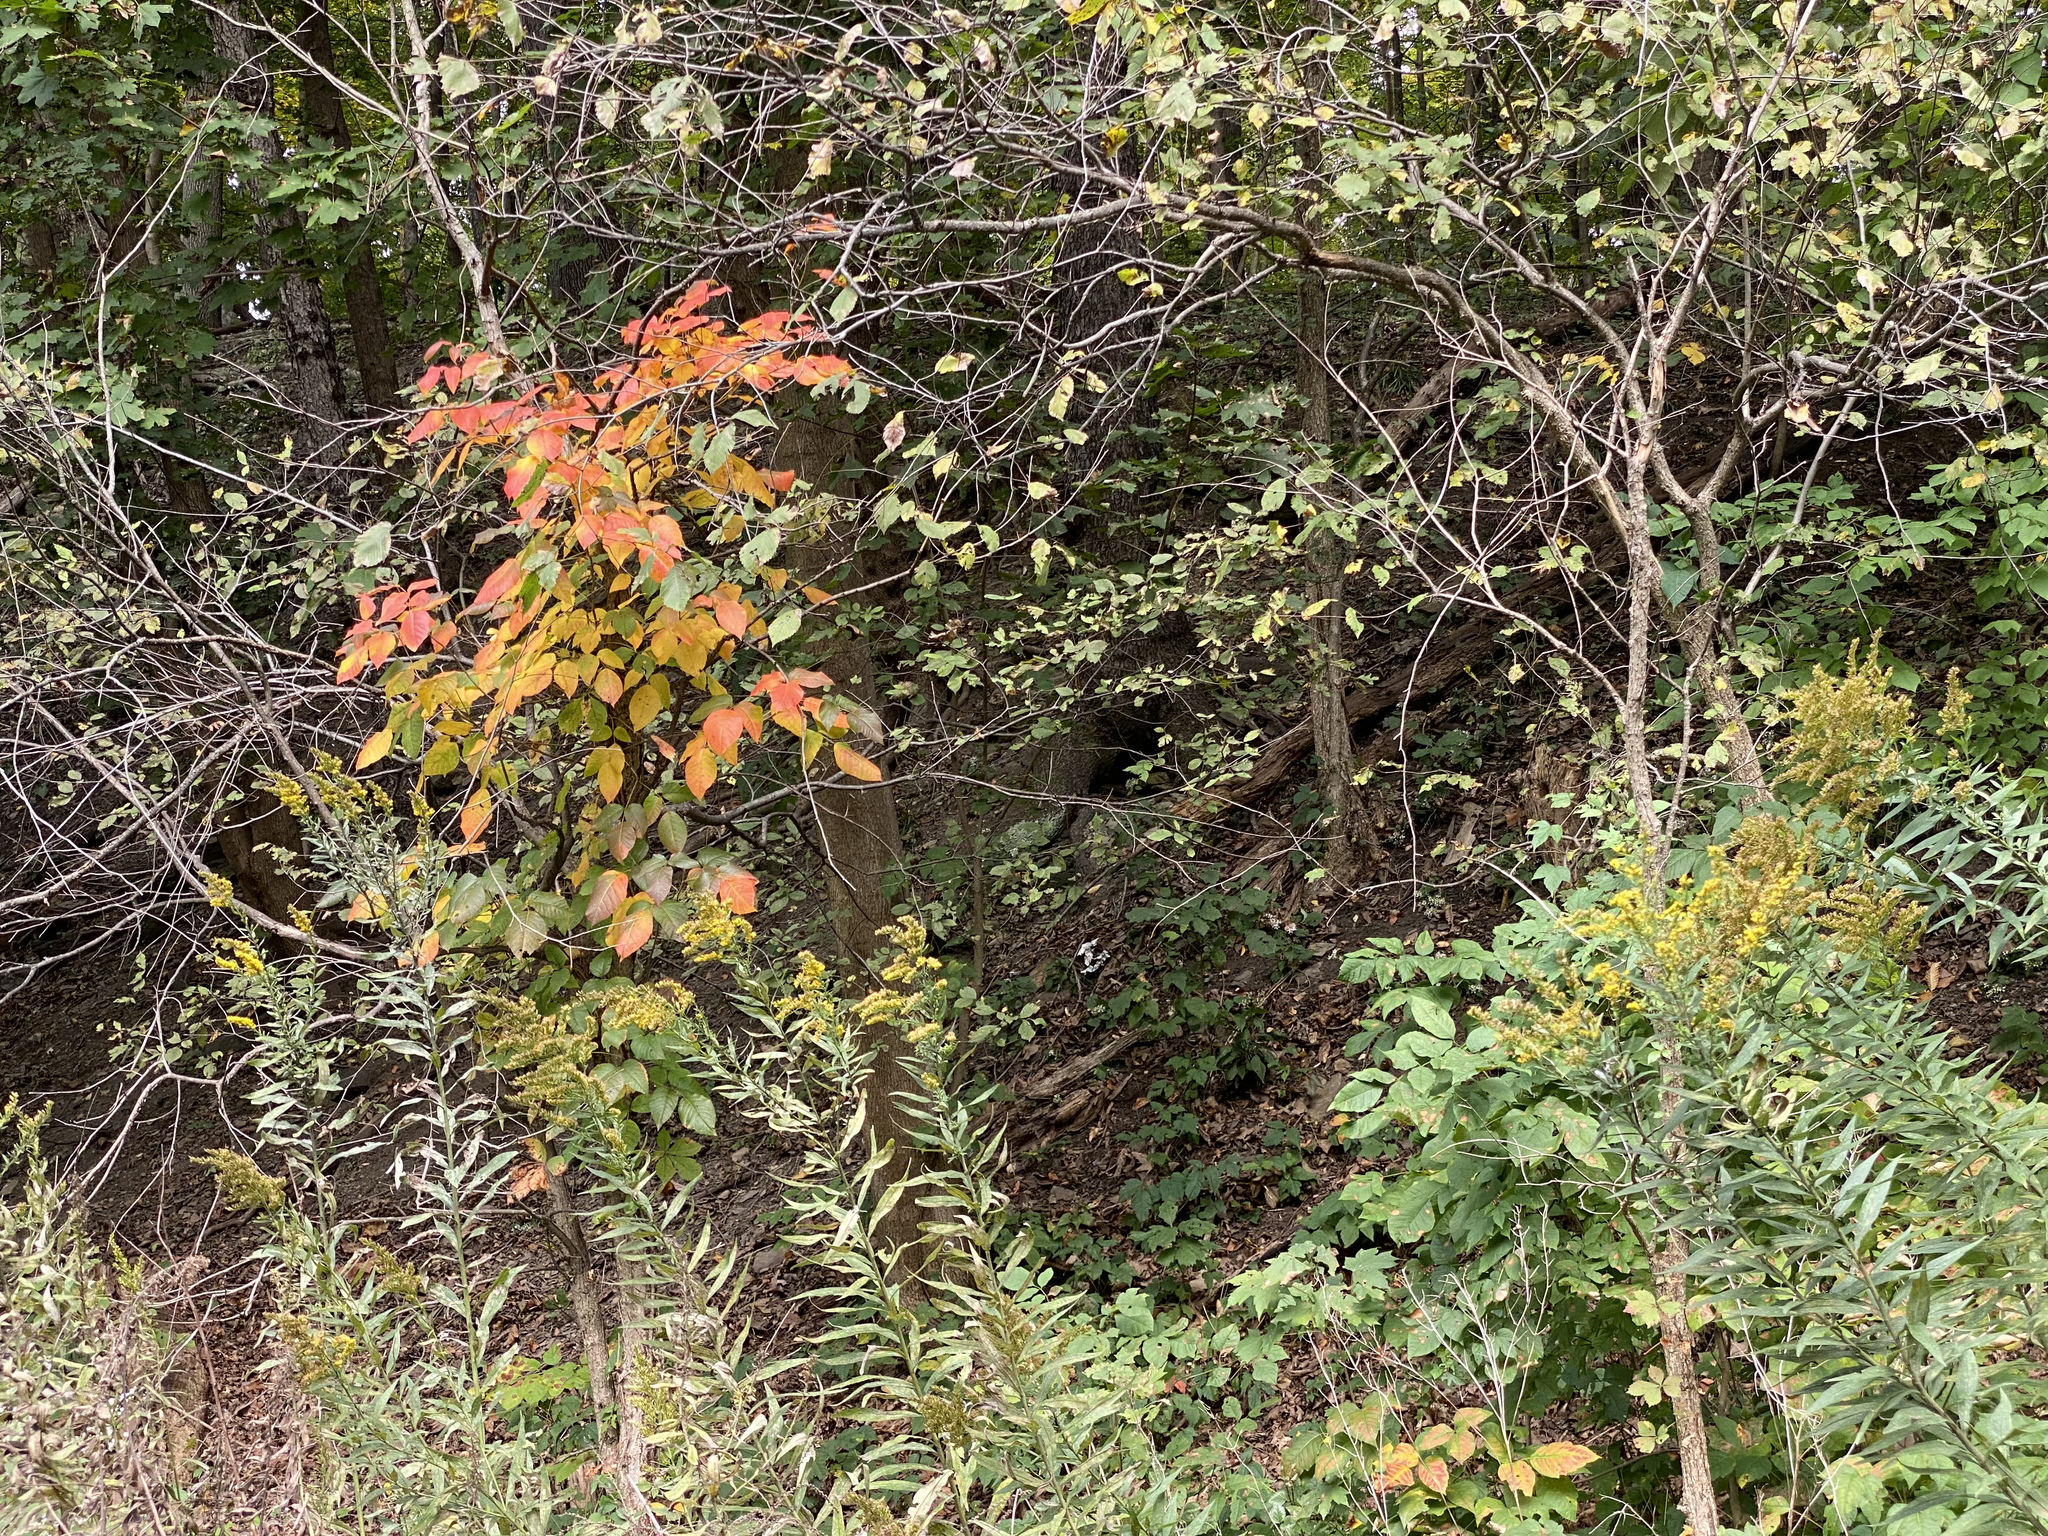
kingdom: Plantae
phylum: Tracheophyta
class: Magnoliopsida
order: Sapindales
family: Anacardiaceae
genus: Toxicodendron
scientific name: Toxicodendron radicans
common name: Poison ivy
